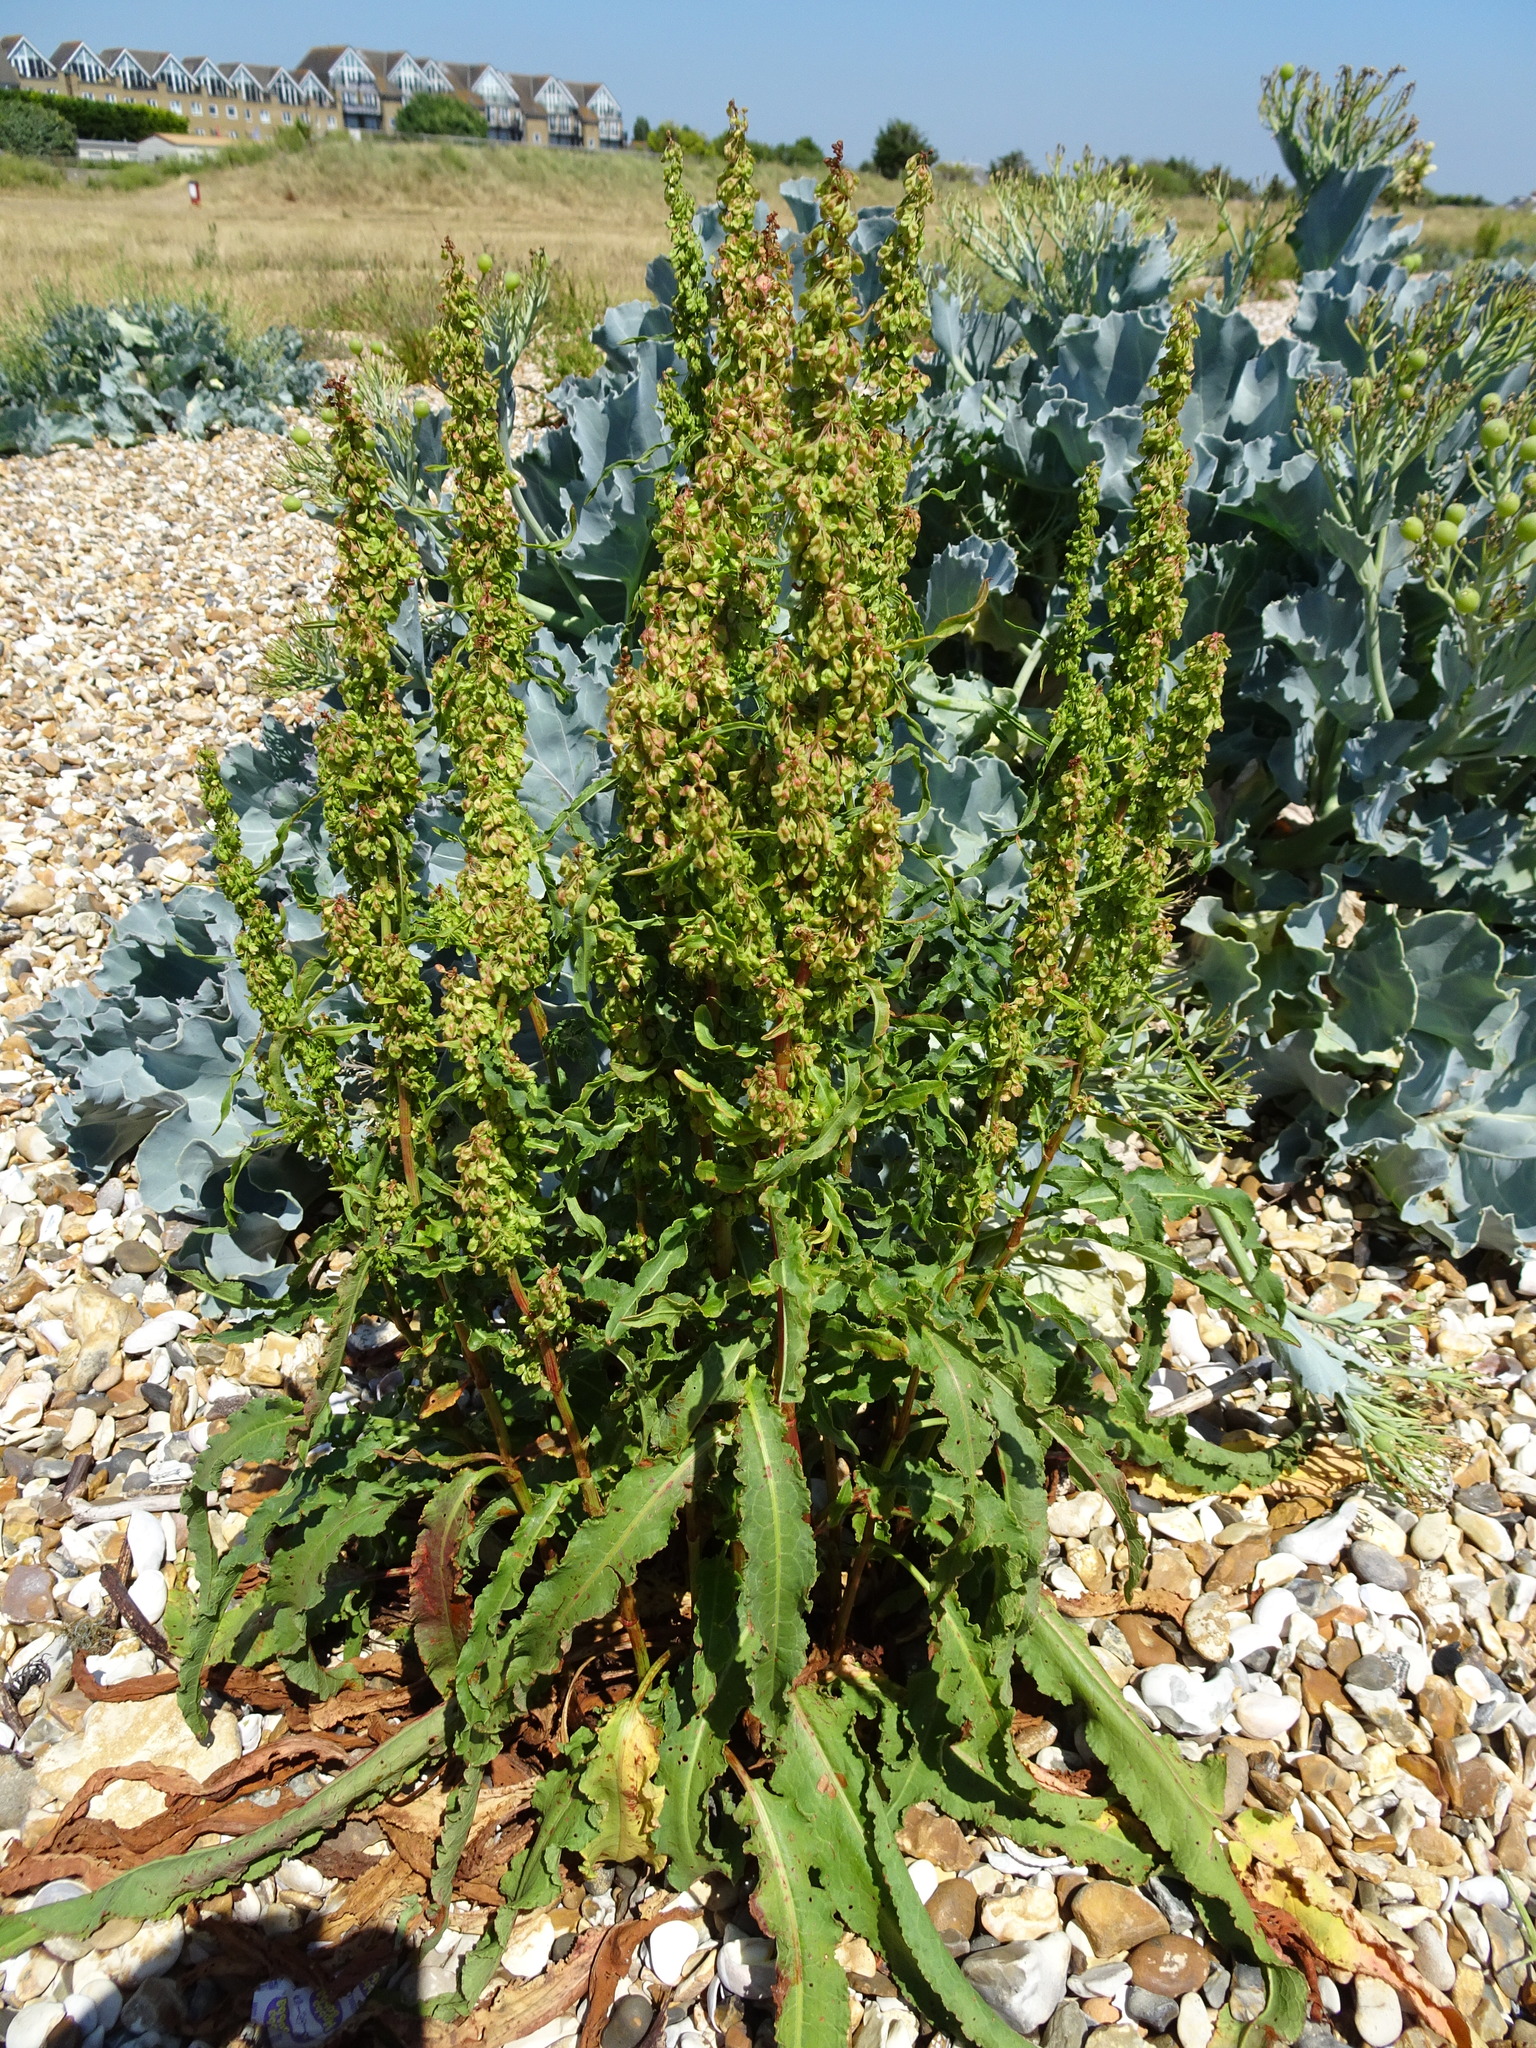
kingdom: Plantae
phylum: Tracheophyta
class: Magnoliopsida
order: Caryophyllales
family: Polygonaceae
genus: Rumex
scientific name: Rumex crispus
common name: Curled dock
